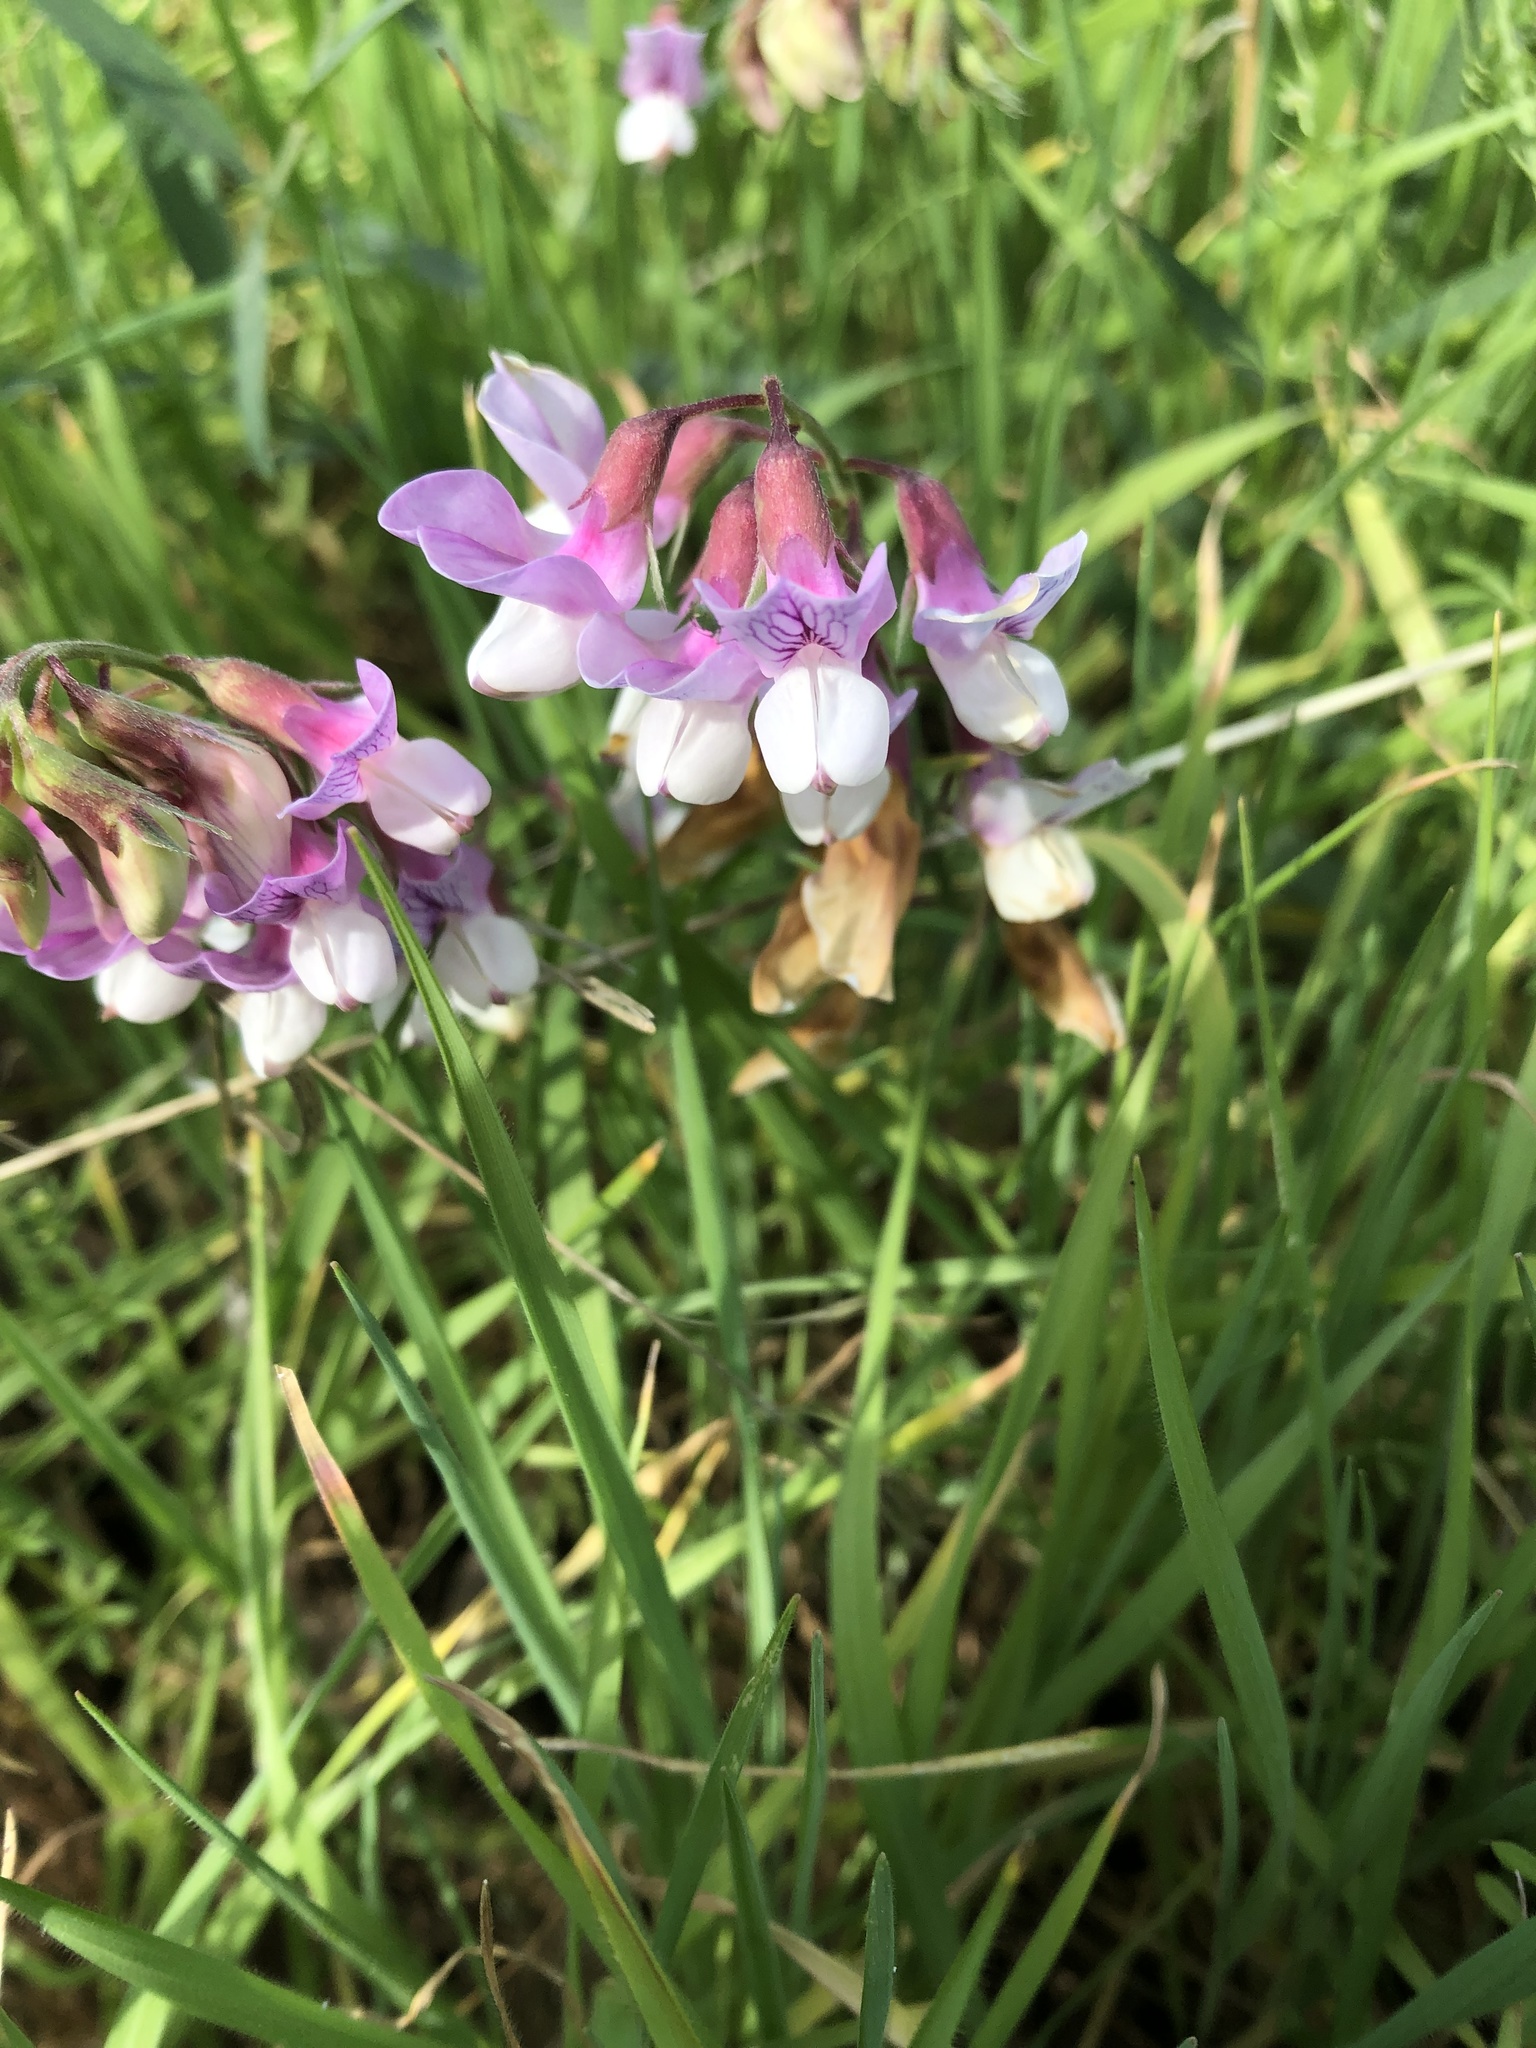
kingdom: Plantae
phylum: Tracheophyta
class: Magnoliopsida
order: Fabales
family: Fabaceae
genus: Lathyrus
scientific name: Lathyrus vestitus
